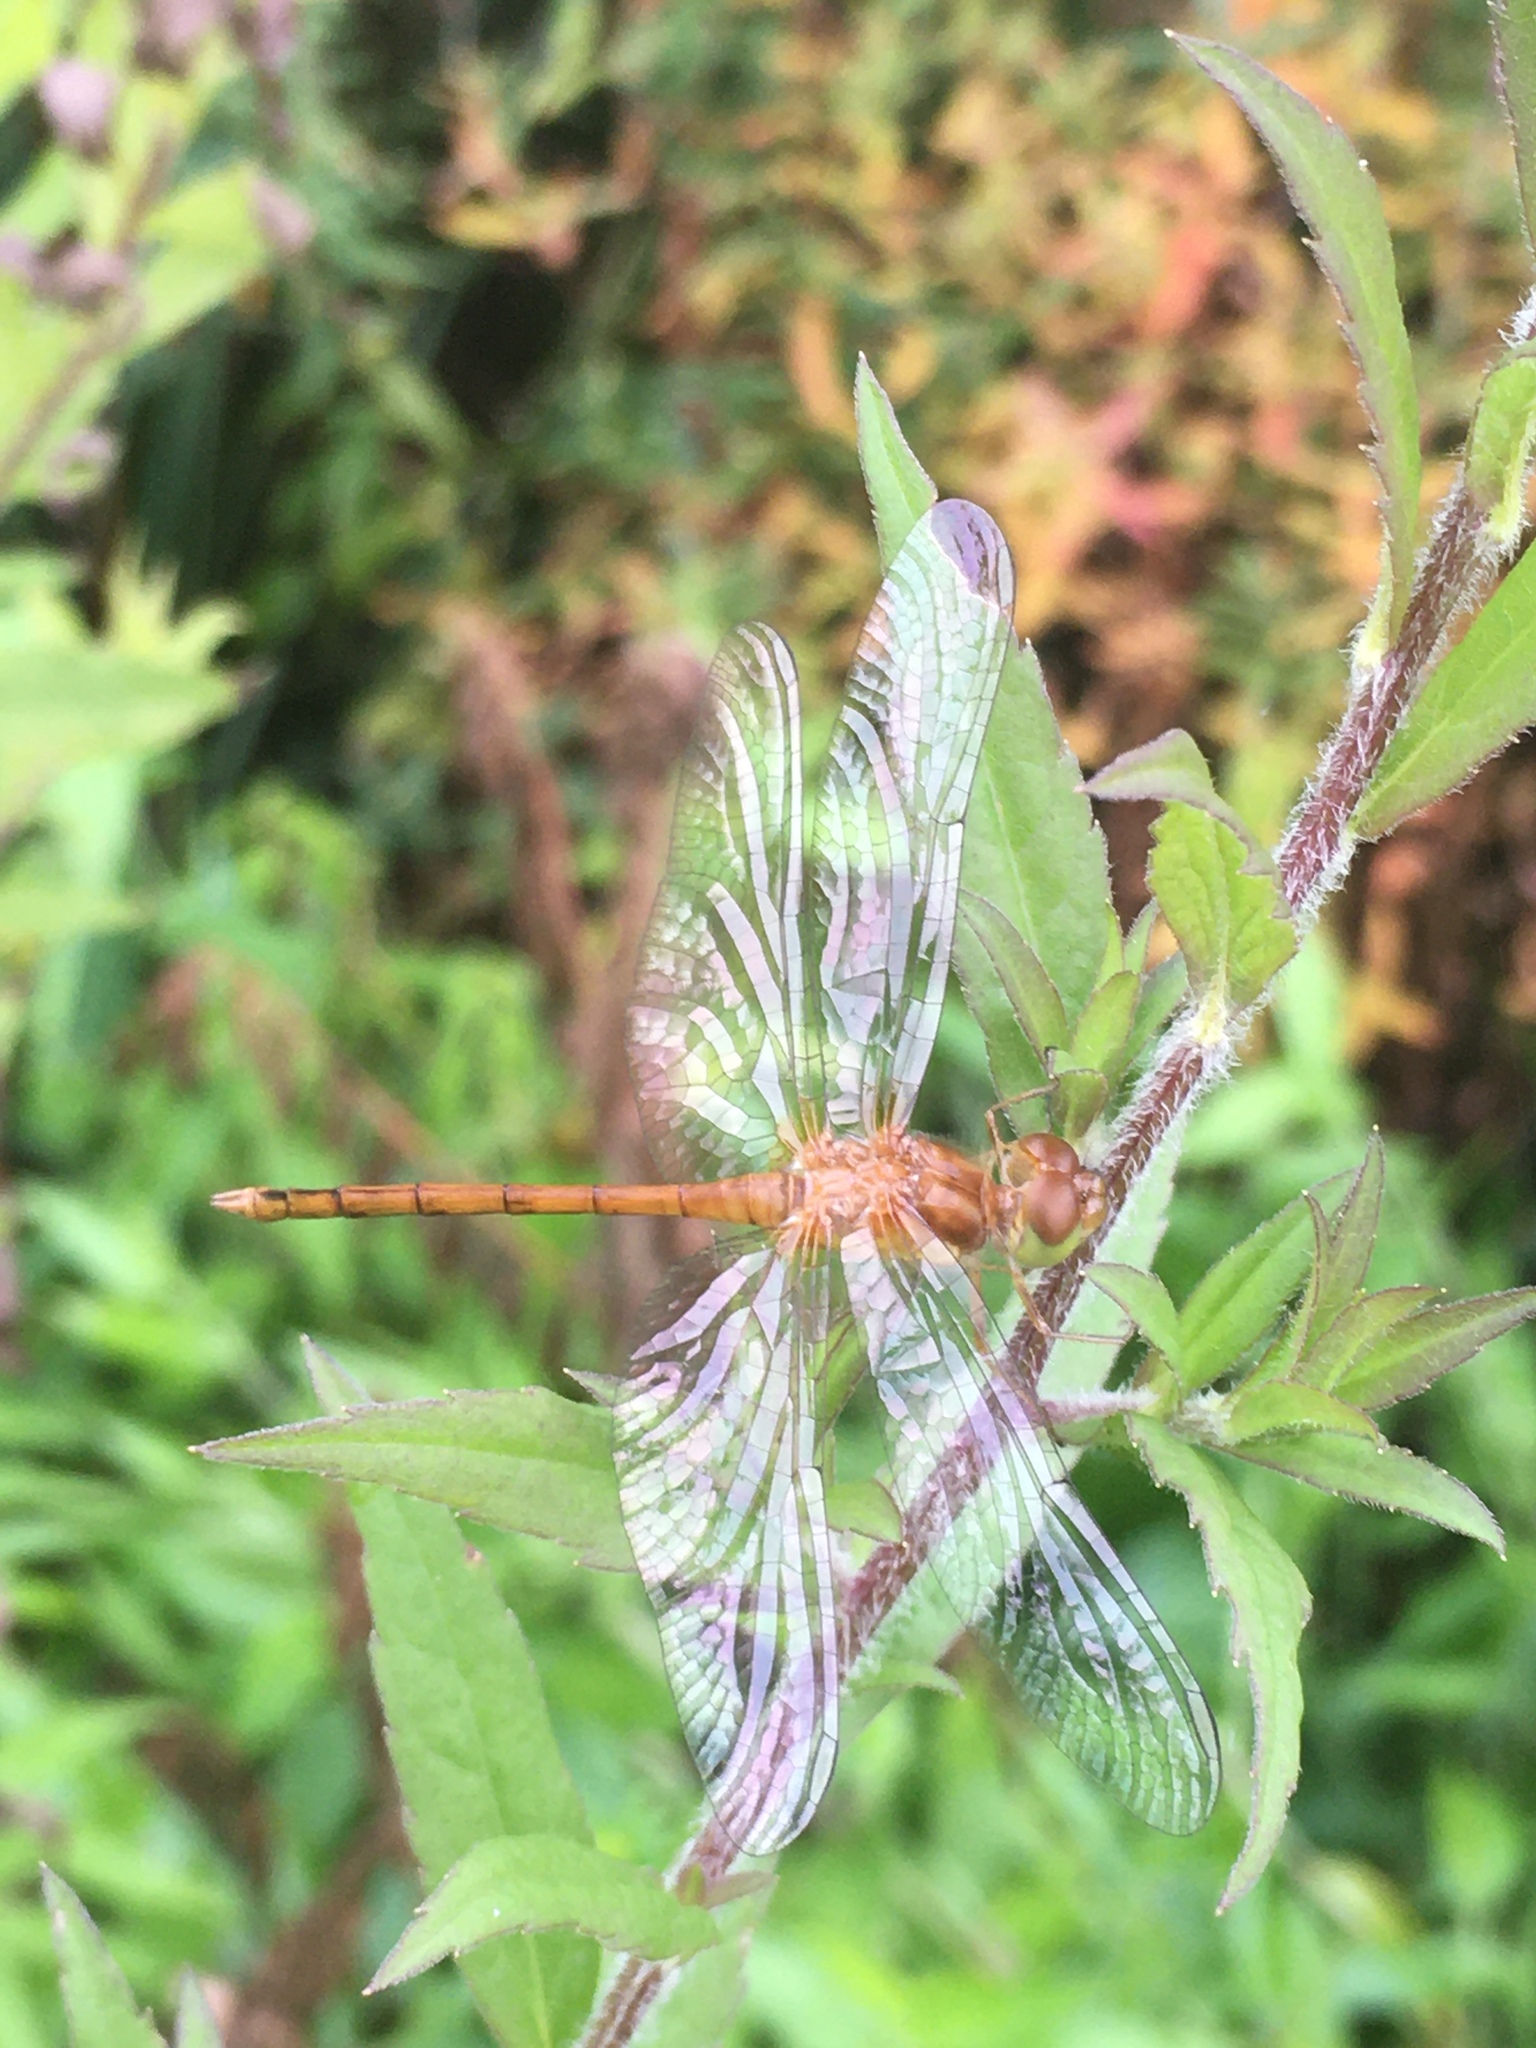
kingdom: Animalia
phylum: Arthropoda
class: Insecta
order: Odonata
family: Libellulidae
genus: Sympetrum
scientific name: Sympetrum vicinum
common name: Autumn meadowhawk
